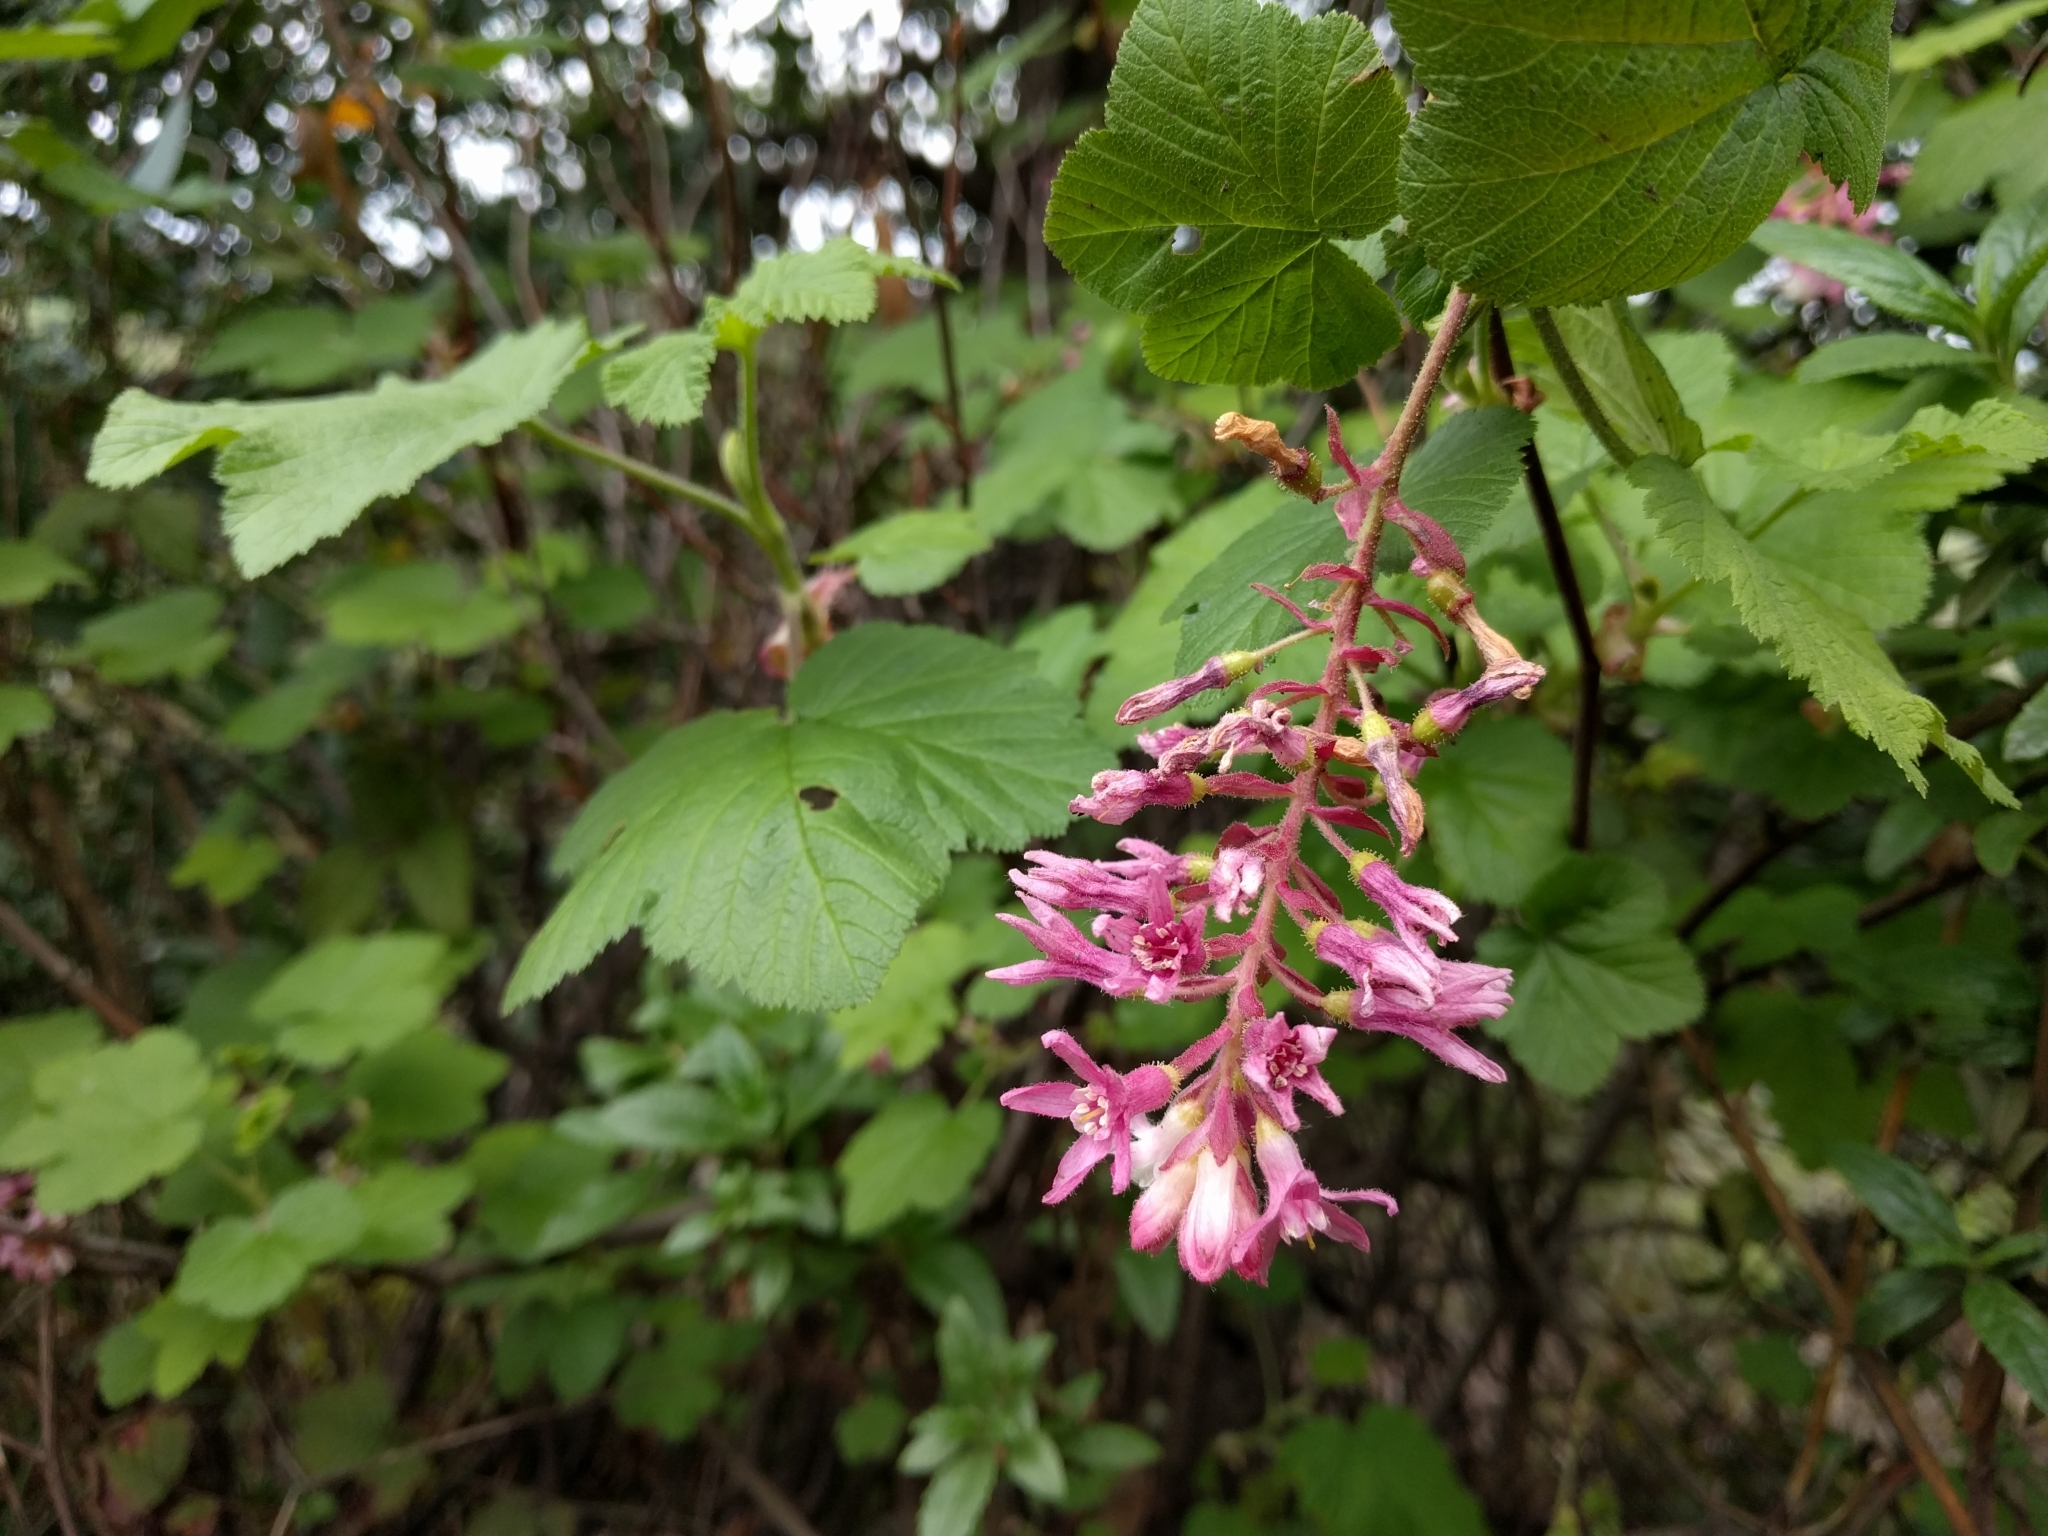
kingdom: Plantae
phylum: Tracheophyta
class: Magnoliopsida
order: Saxifragales
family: Grossulariaceae
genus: Ribes
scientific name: Ribes sanguineum
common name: Flowering currant
